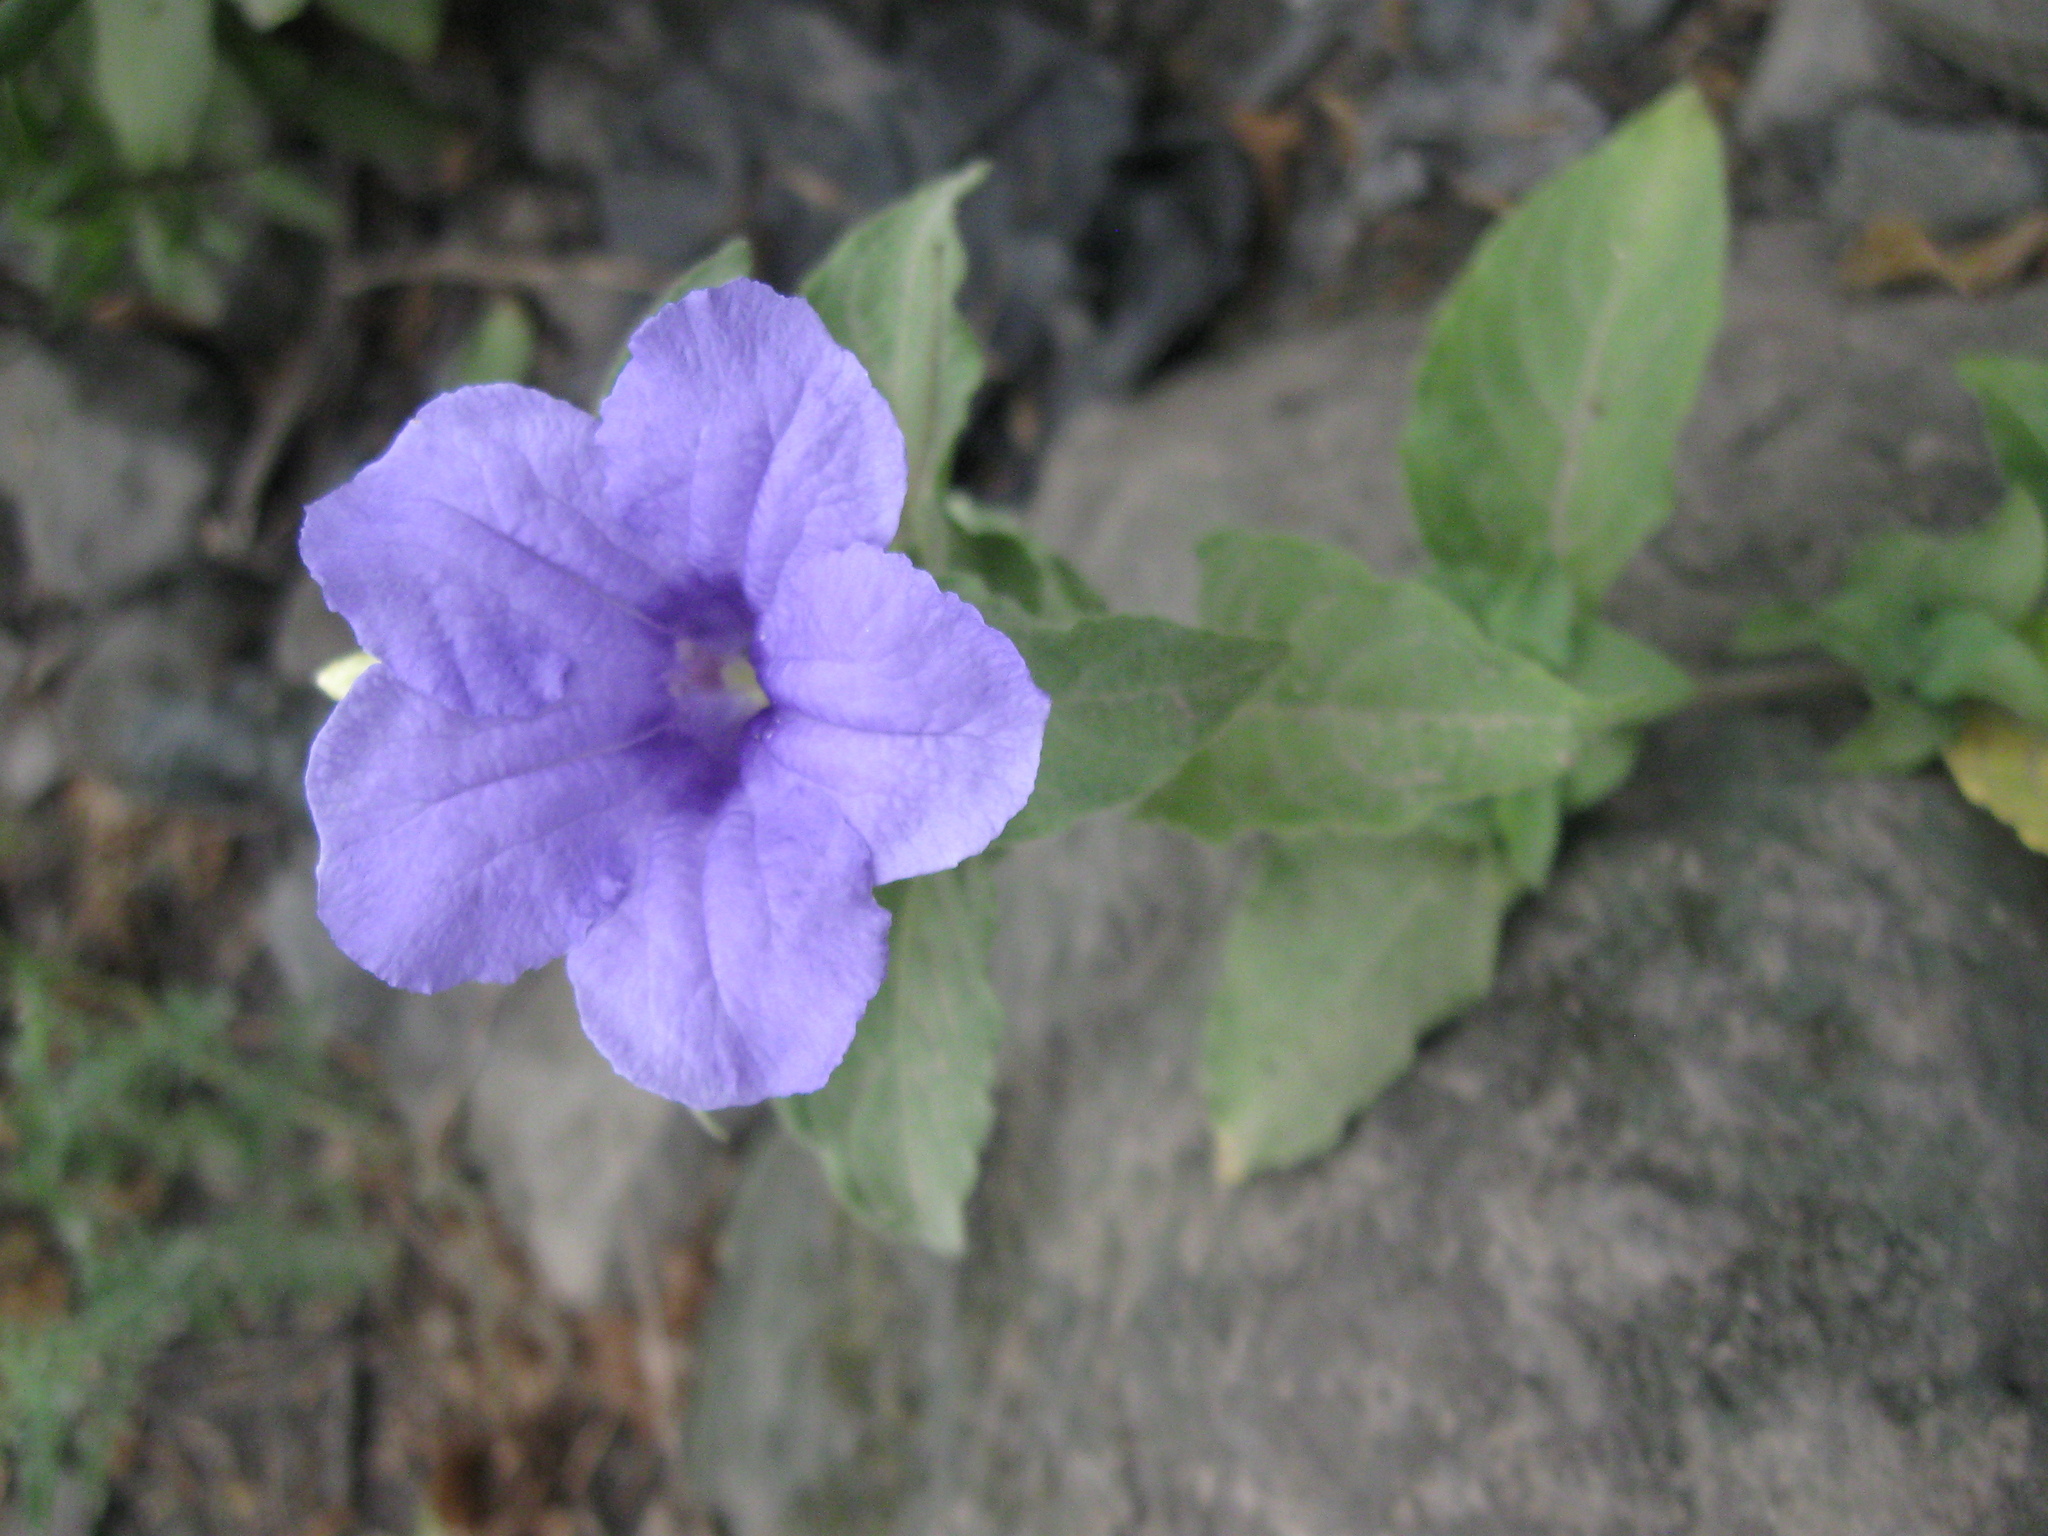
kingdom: Plantae
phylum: Tracheophyta
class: Magnoliopsida
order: Lamiales
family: Acanthaceae
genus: Ruellia
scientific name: Ruellia spectabilis
